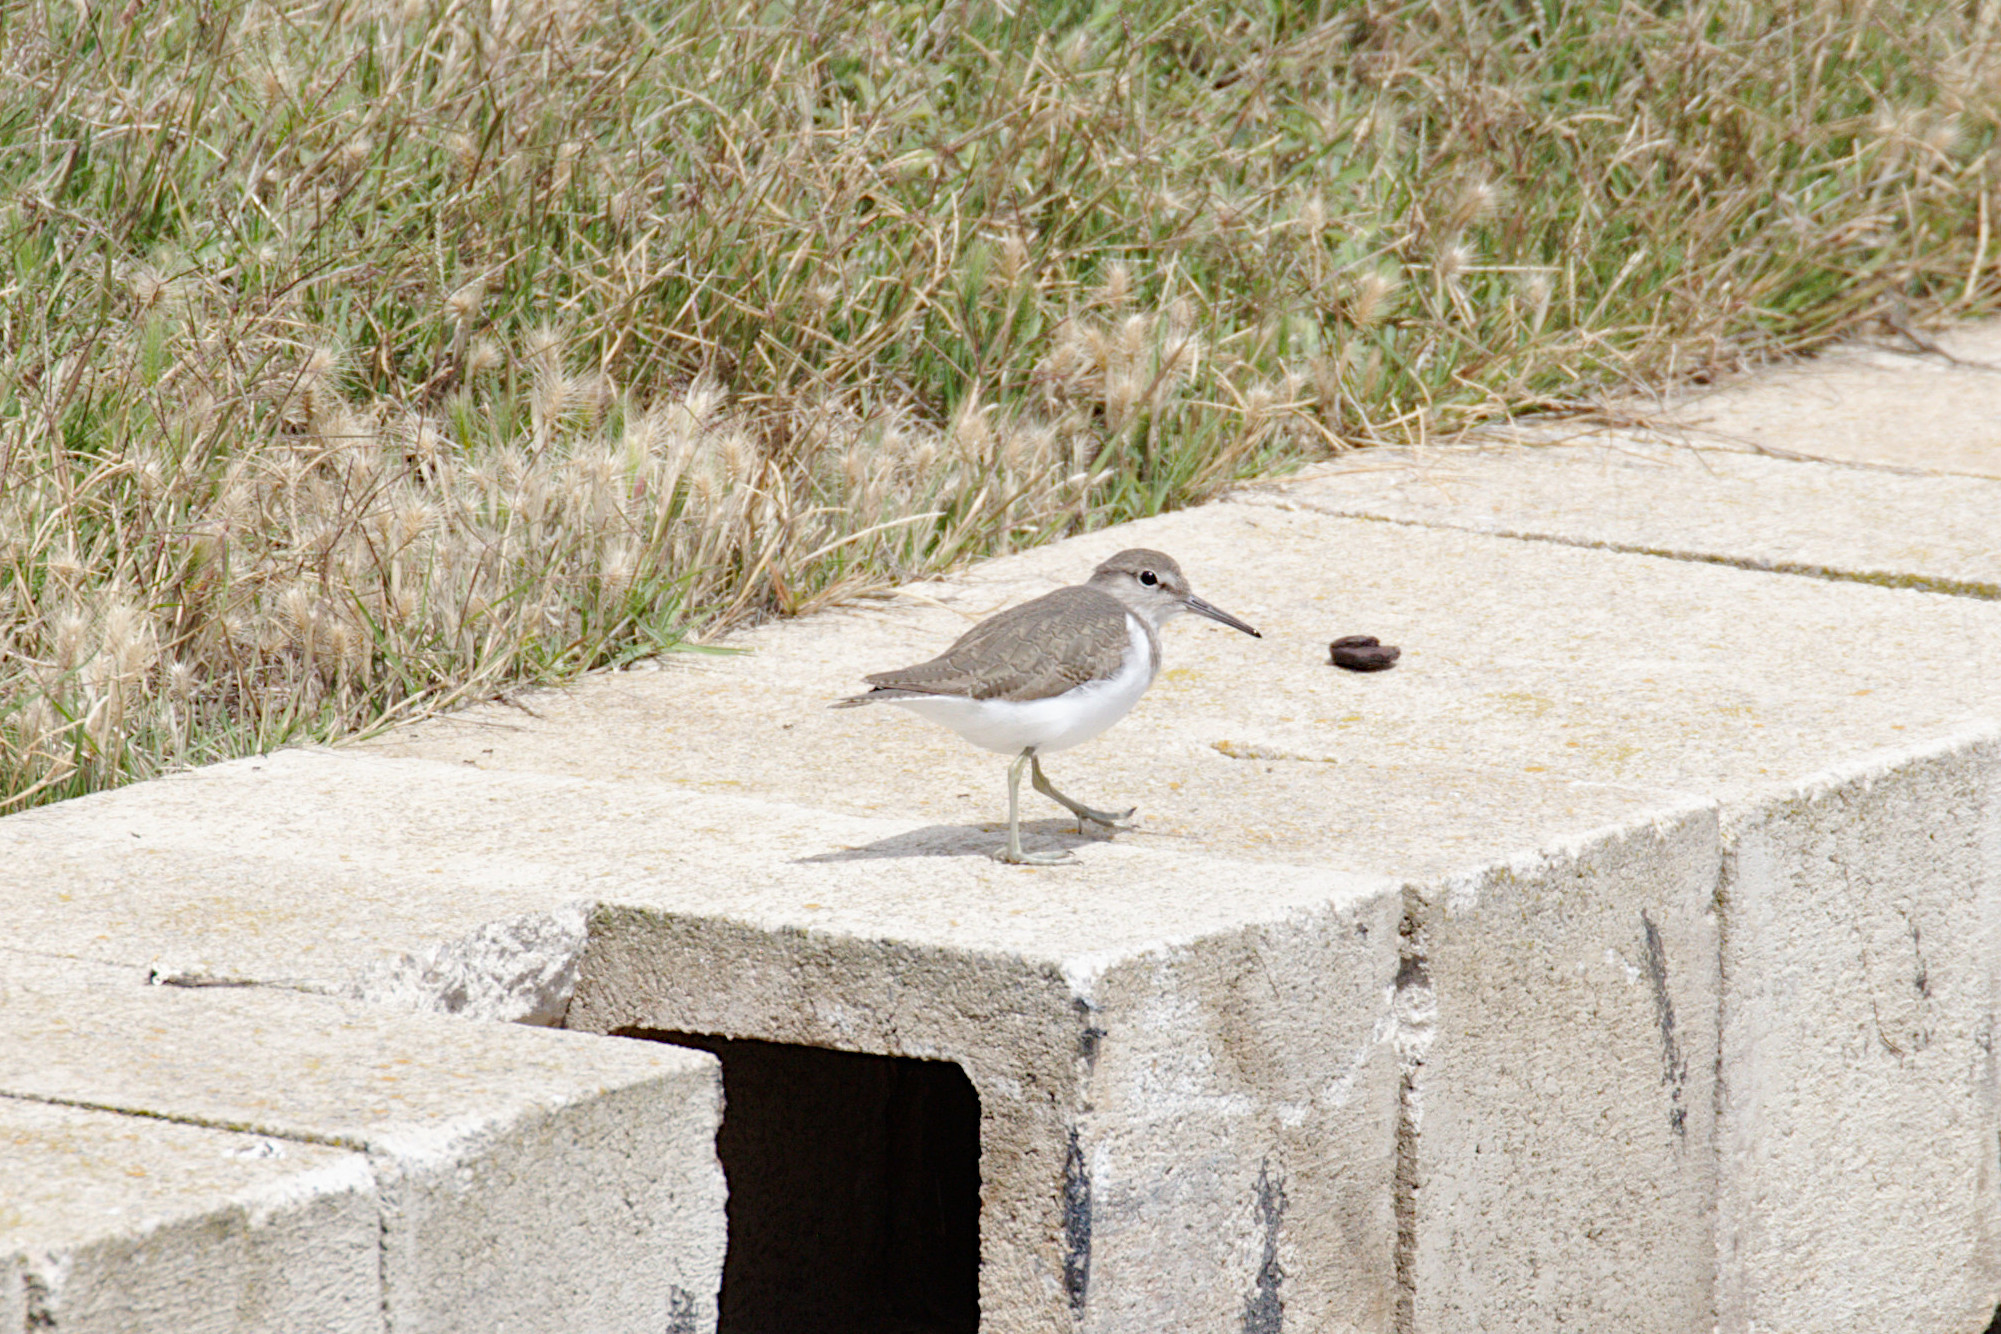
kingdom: Animalia
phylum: Chordata
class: Aves
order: Charadriiformes
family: Scolopacidae
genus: Actitis
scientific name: Actitis hypoleucos
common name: Common sandpiper
